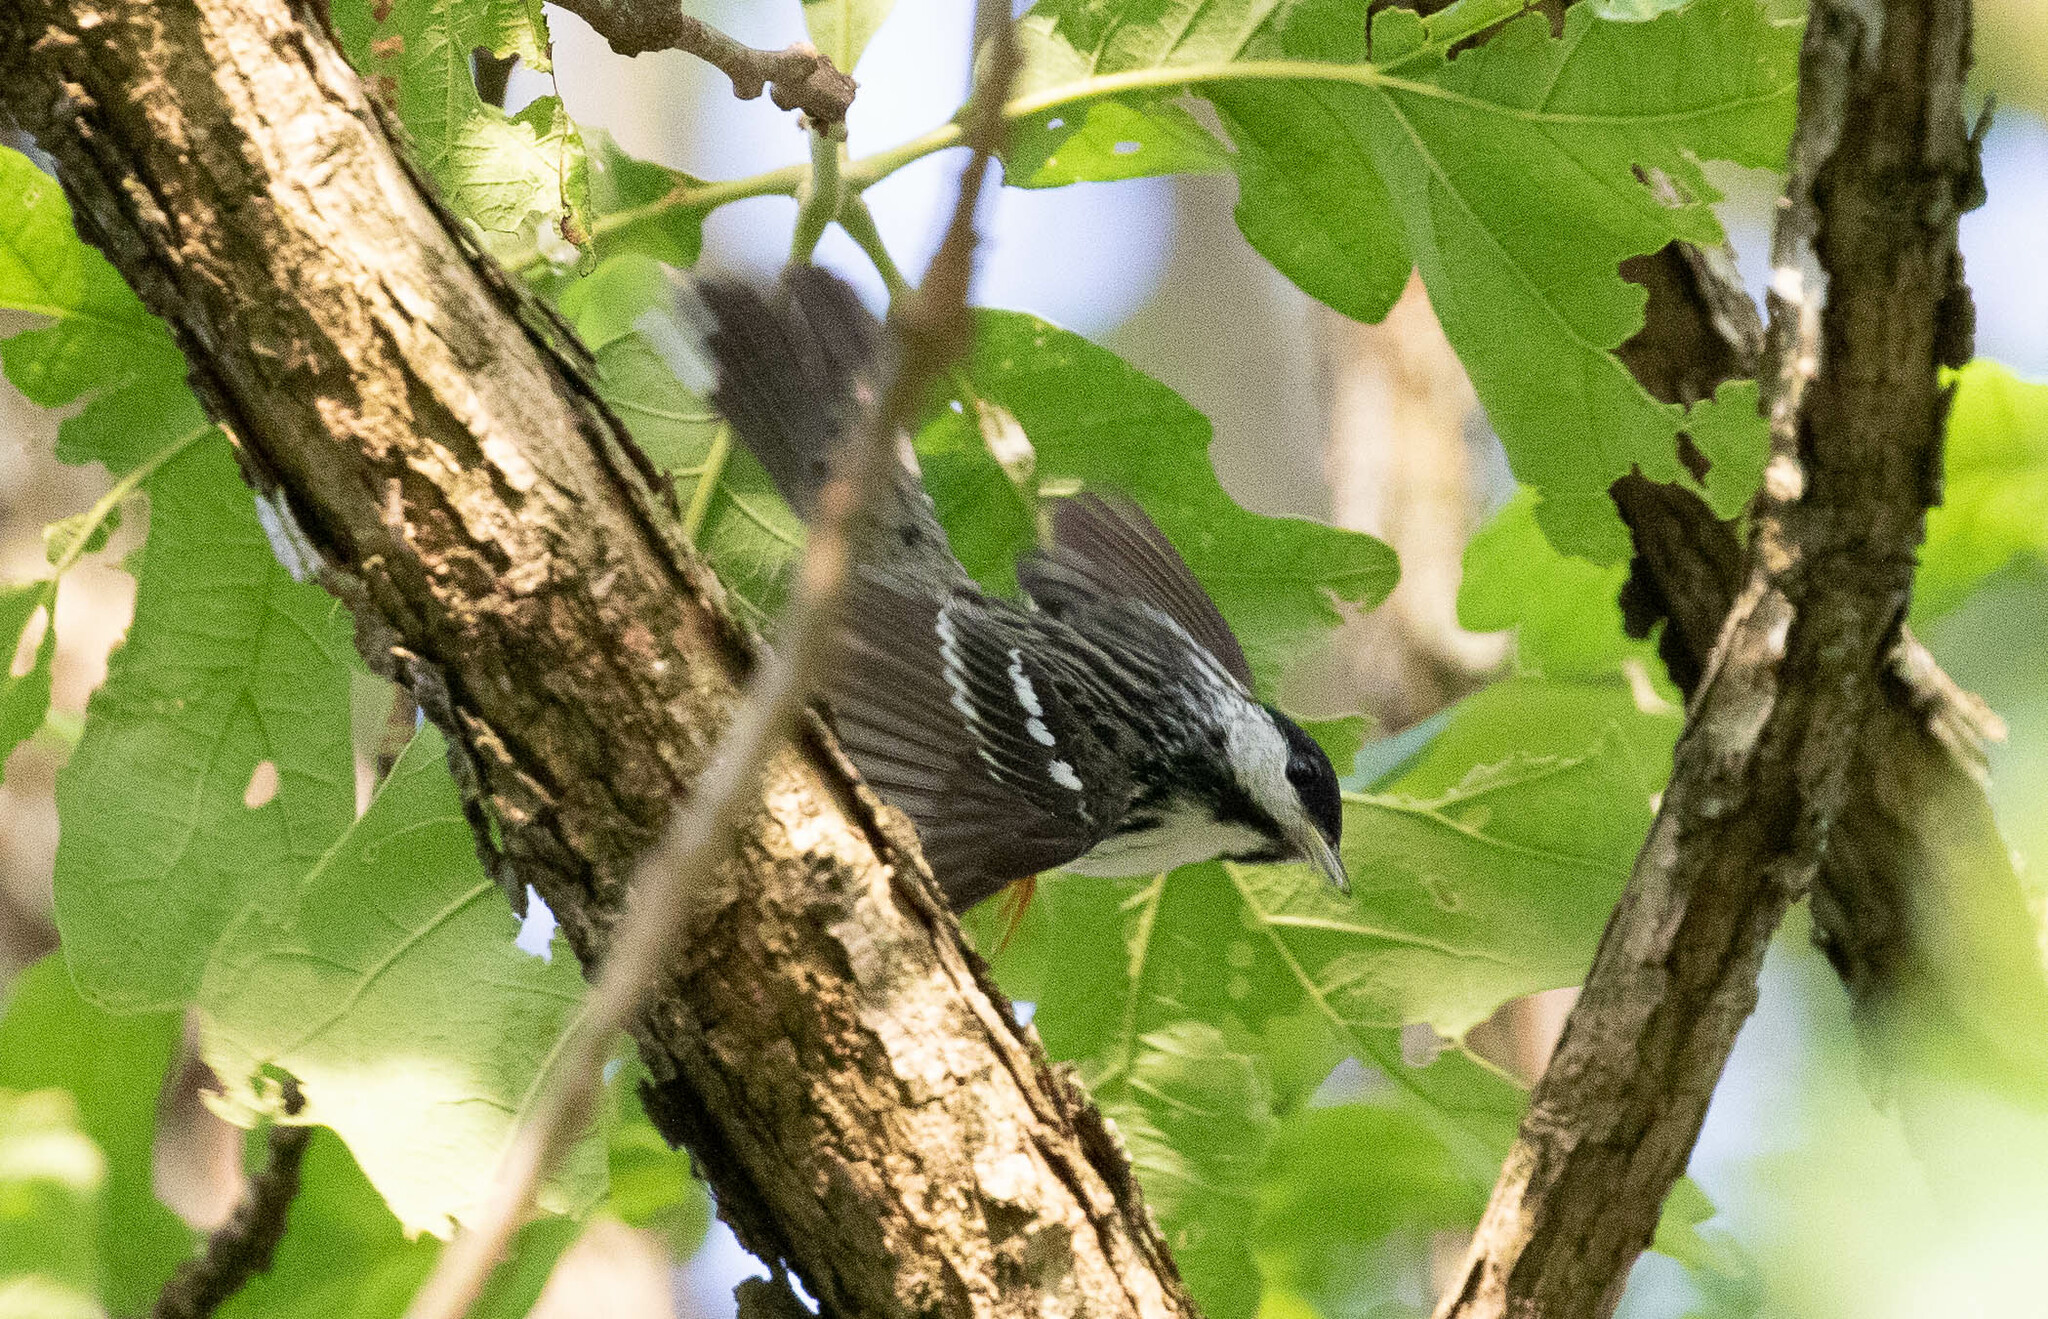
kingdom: Animalia
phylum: Chordata
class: Aves
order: Passeriformes
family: Parulidae
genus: Setophaga
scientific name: Setophaga striata
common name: Blackpoll warbler
